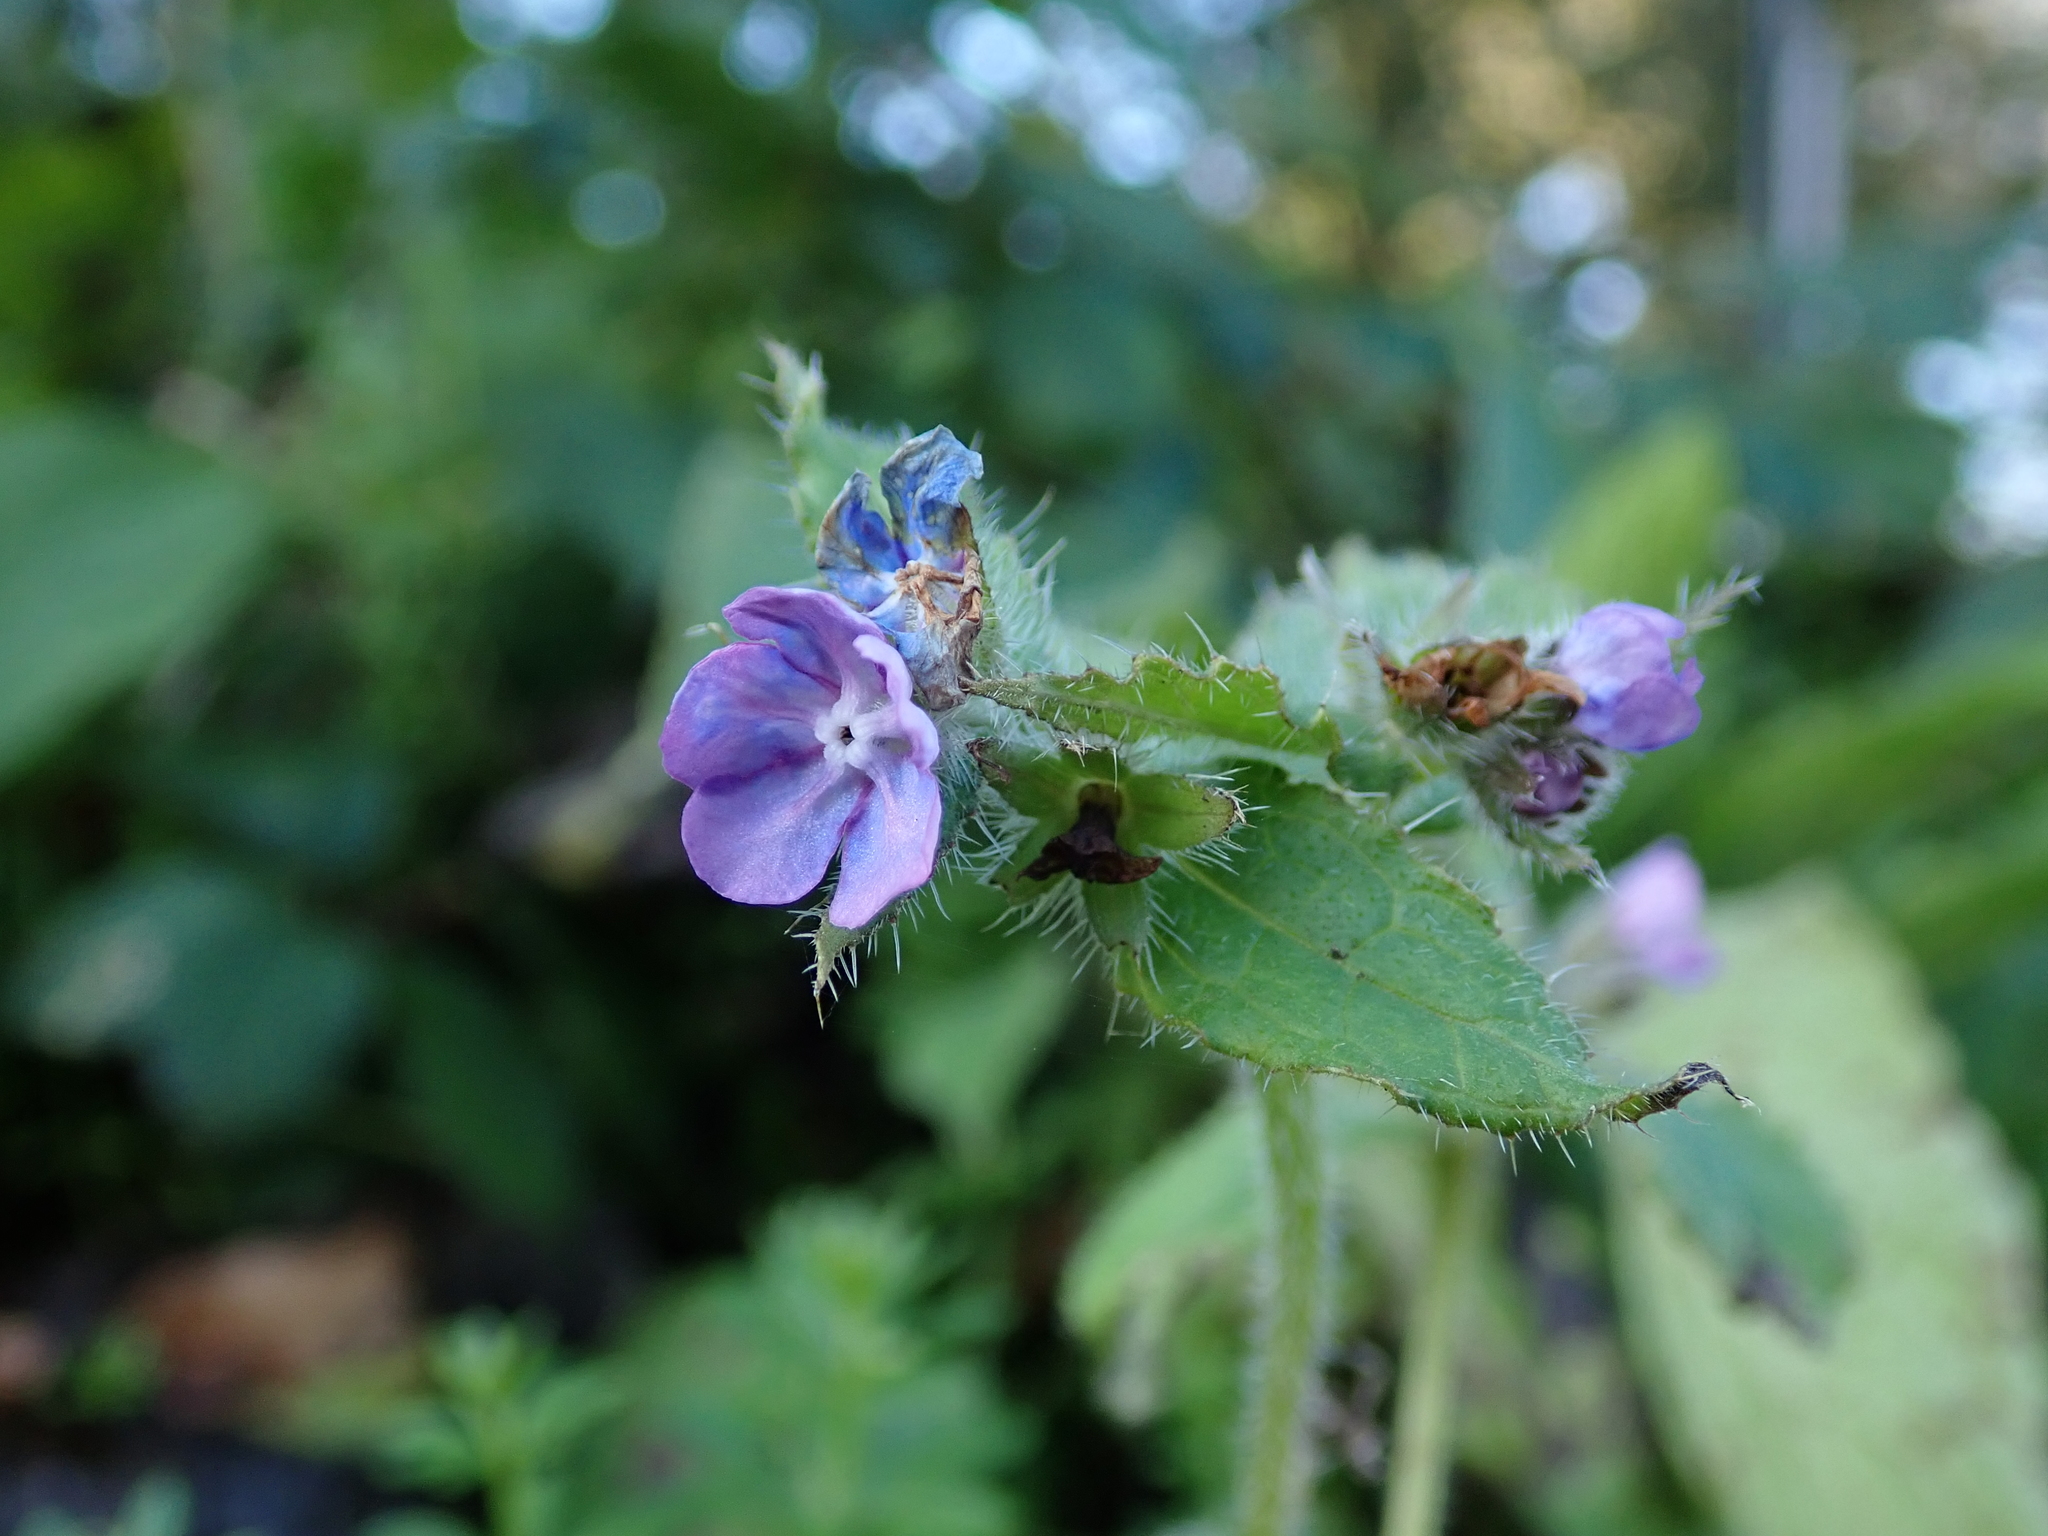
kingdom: Plantae
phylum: Tracheophyta
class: Magnoliopsida
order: Boraginales
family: Boraginaceae
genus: Pentaglottis
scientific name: Pentaglottis sempervirens
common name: Green alkanet
